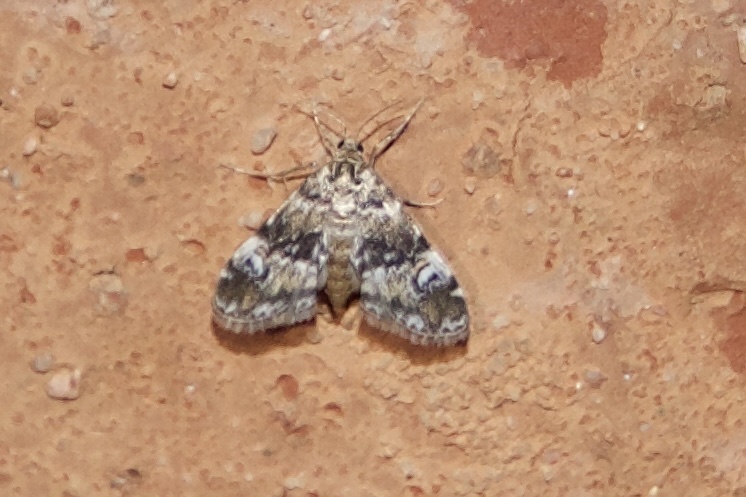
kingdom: Animalia
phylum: Arthropoda
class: Insecta
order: Lepidoptera
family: Crambidae
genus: Elophila
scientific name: Elophila obliteralis
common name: Waterlily leafcutter moth
